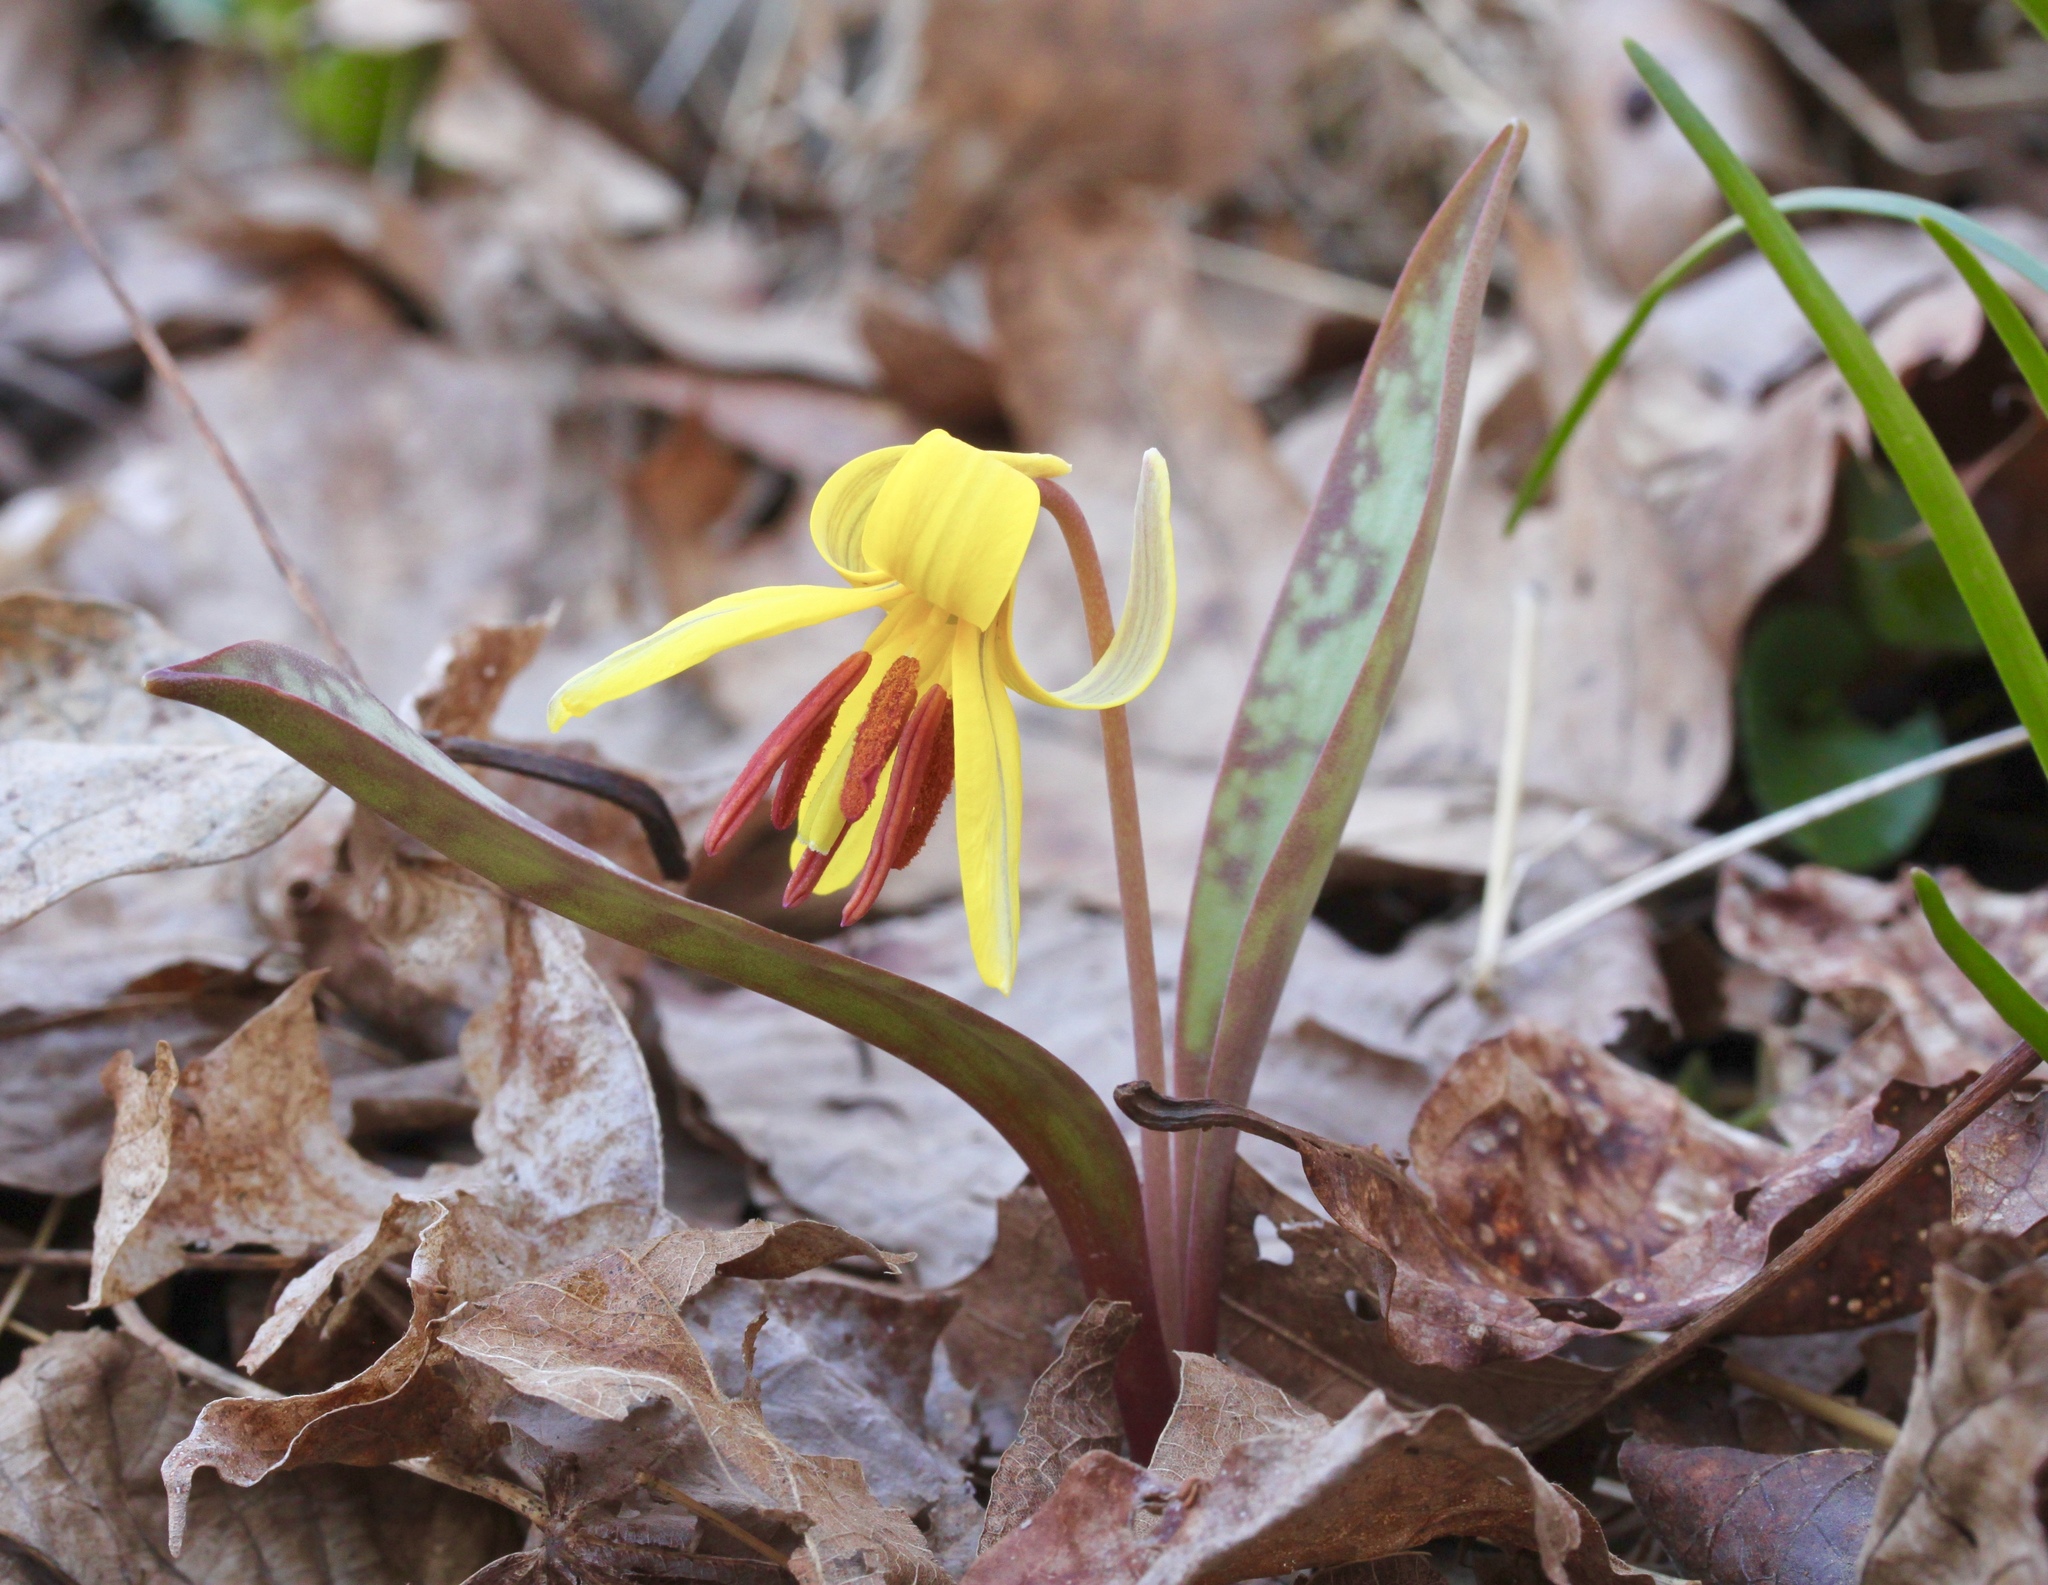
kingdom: Plantae
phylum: Tracheophyta
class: Liliopsida
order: Liliales
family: Liliaceae
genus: Erythronium
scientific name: Erythronium americanum
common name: Yellow adder's-tongue
